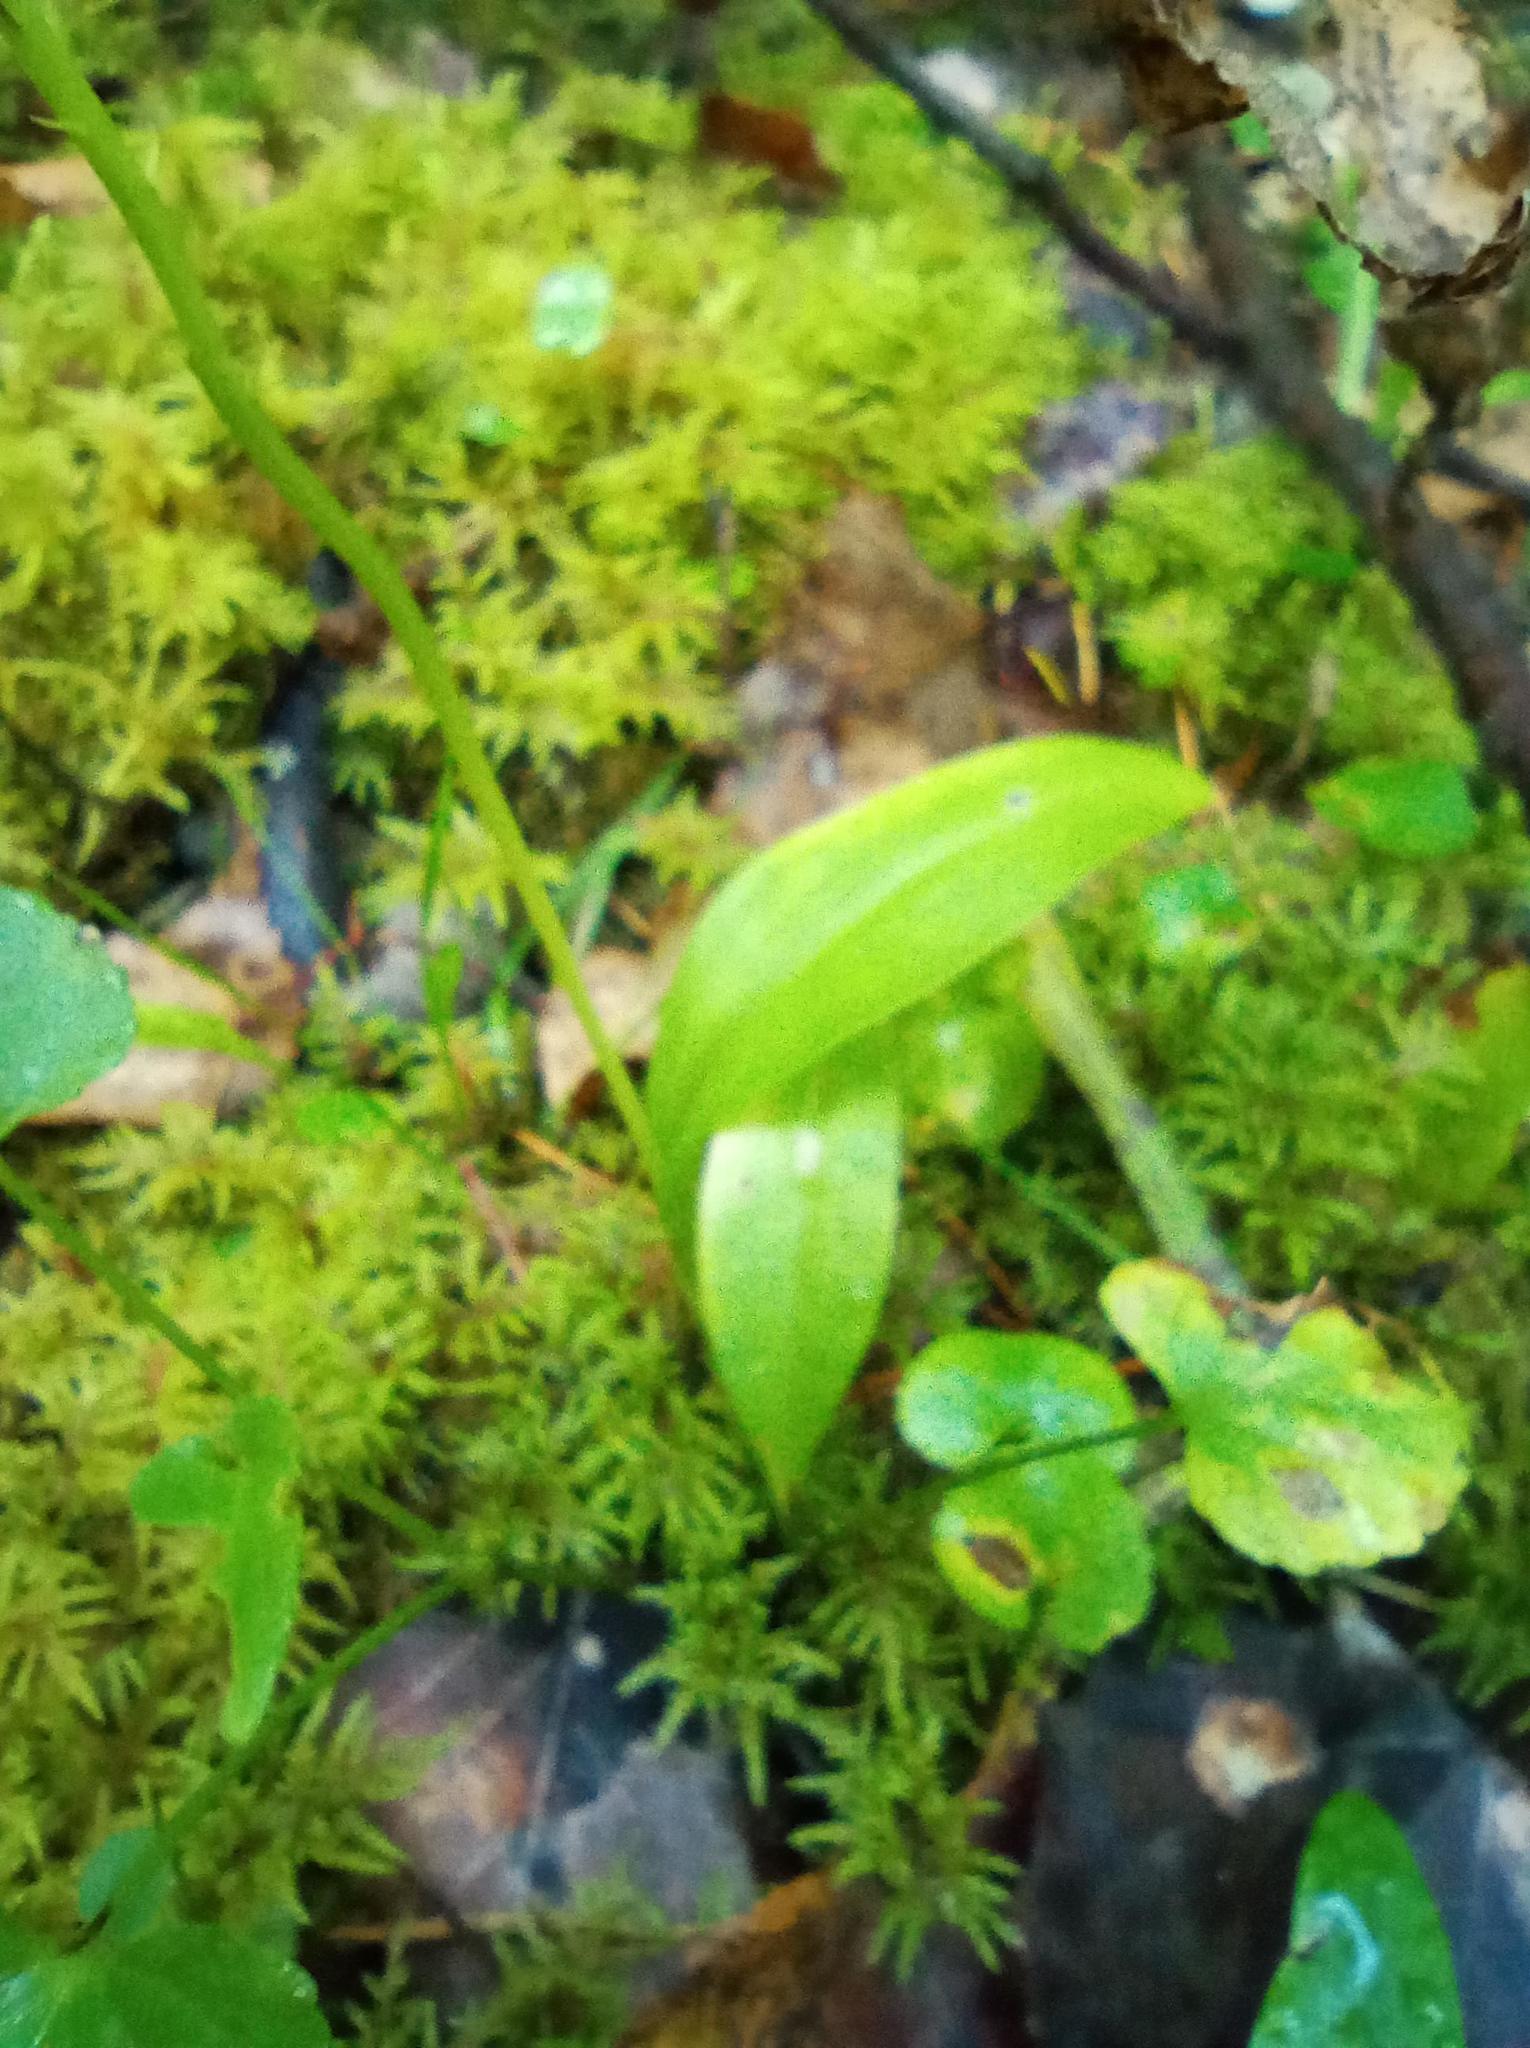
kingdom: Plantae
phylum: Tracheophyta
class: Liliopsida
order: Asparagales
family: Orchidaceae
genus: Malaxis
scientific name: Malaxis monophyllos
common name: White adder's-mouth
